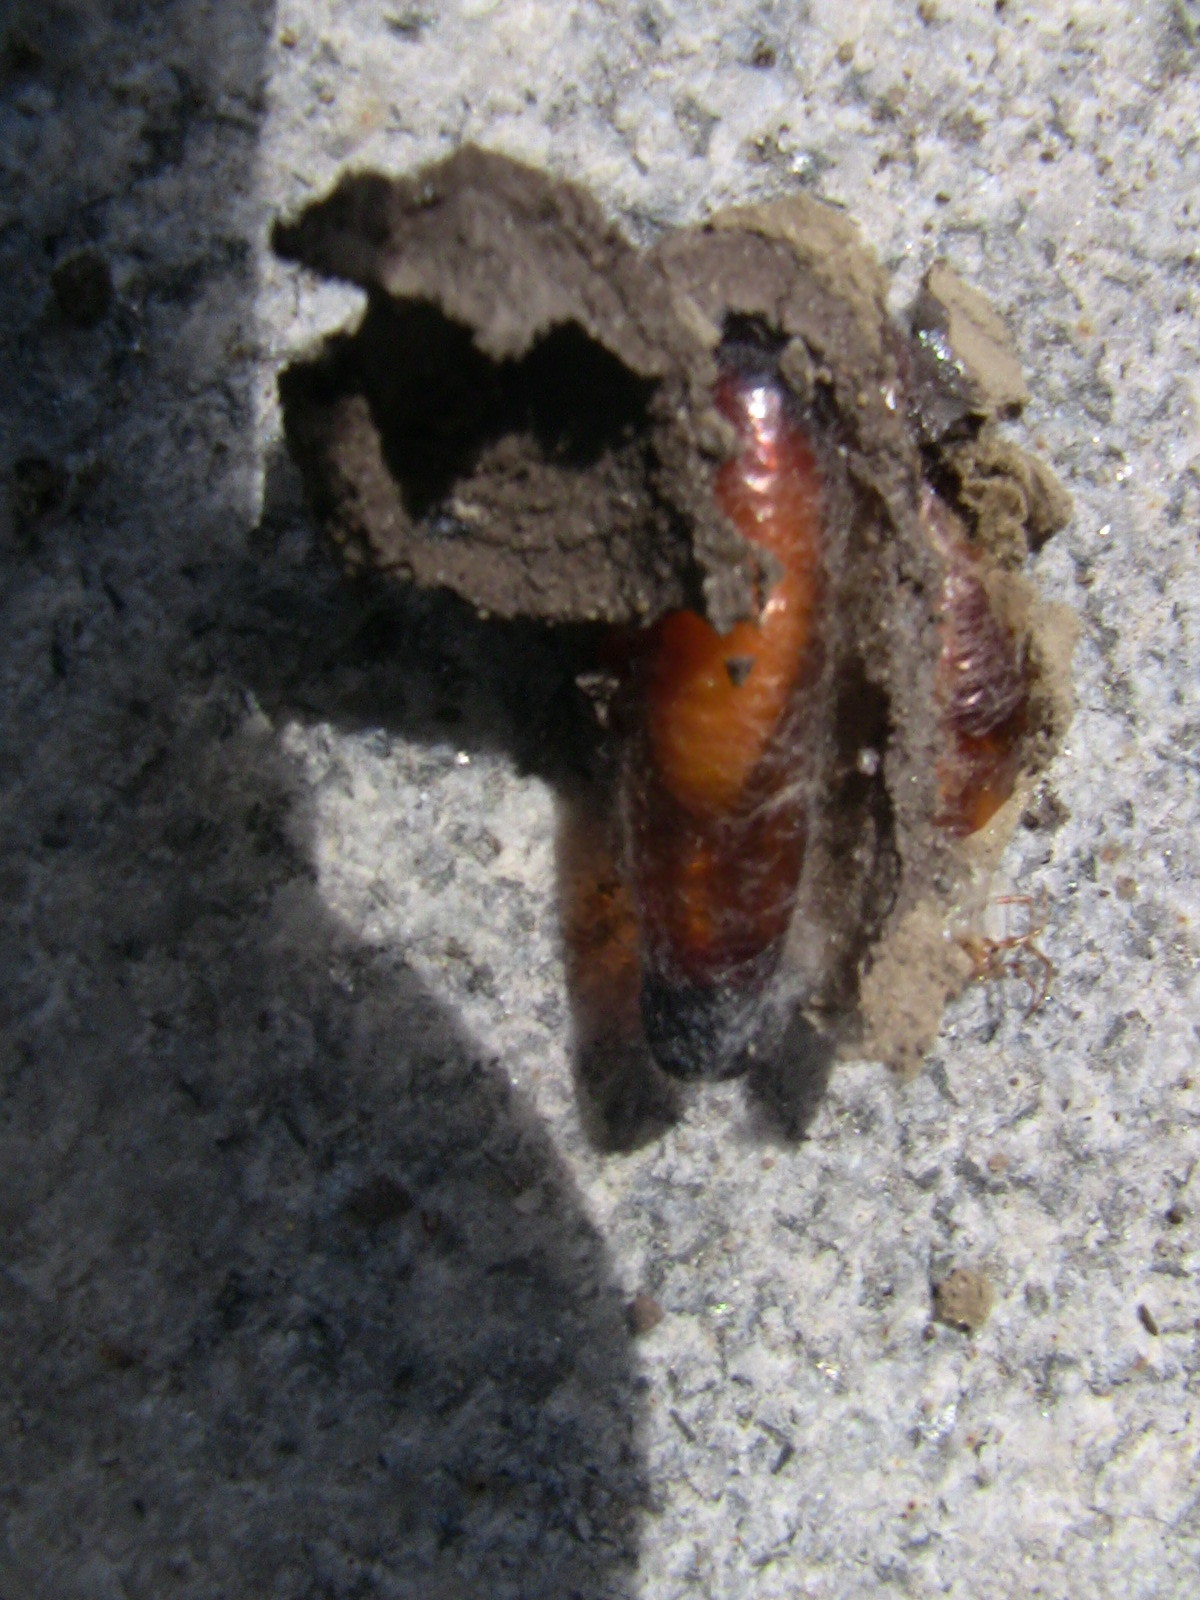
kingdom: Animalia
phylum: Arthropoda
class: Insecta
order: Hymenoptera
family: Sphecidae
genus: Sceliphron
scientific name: Sceliphron caementarium
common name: Mud dauber
